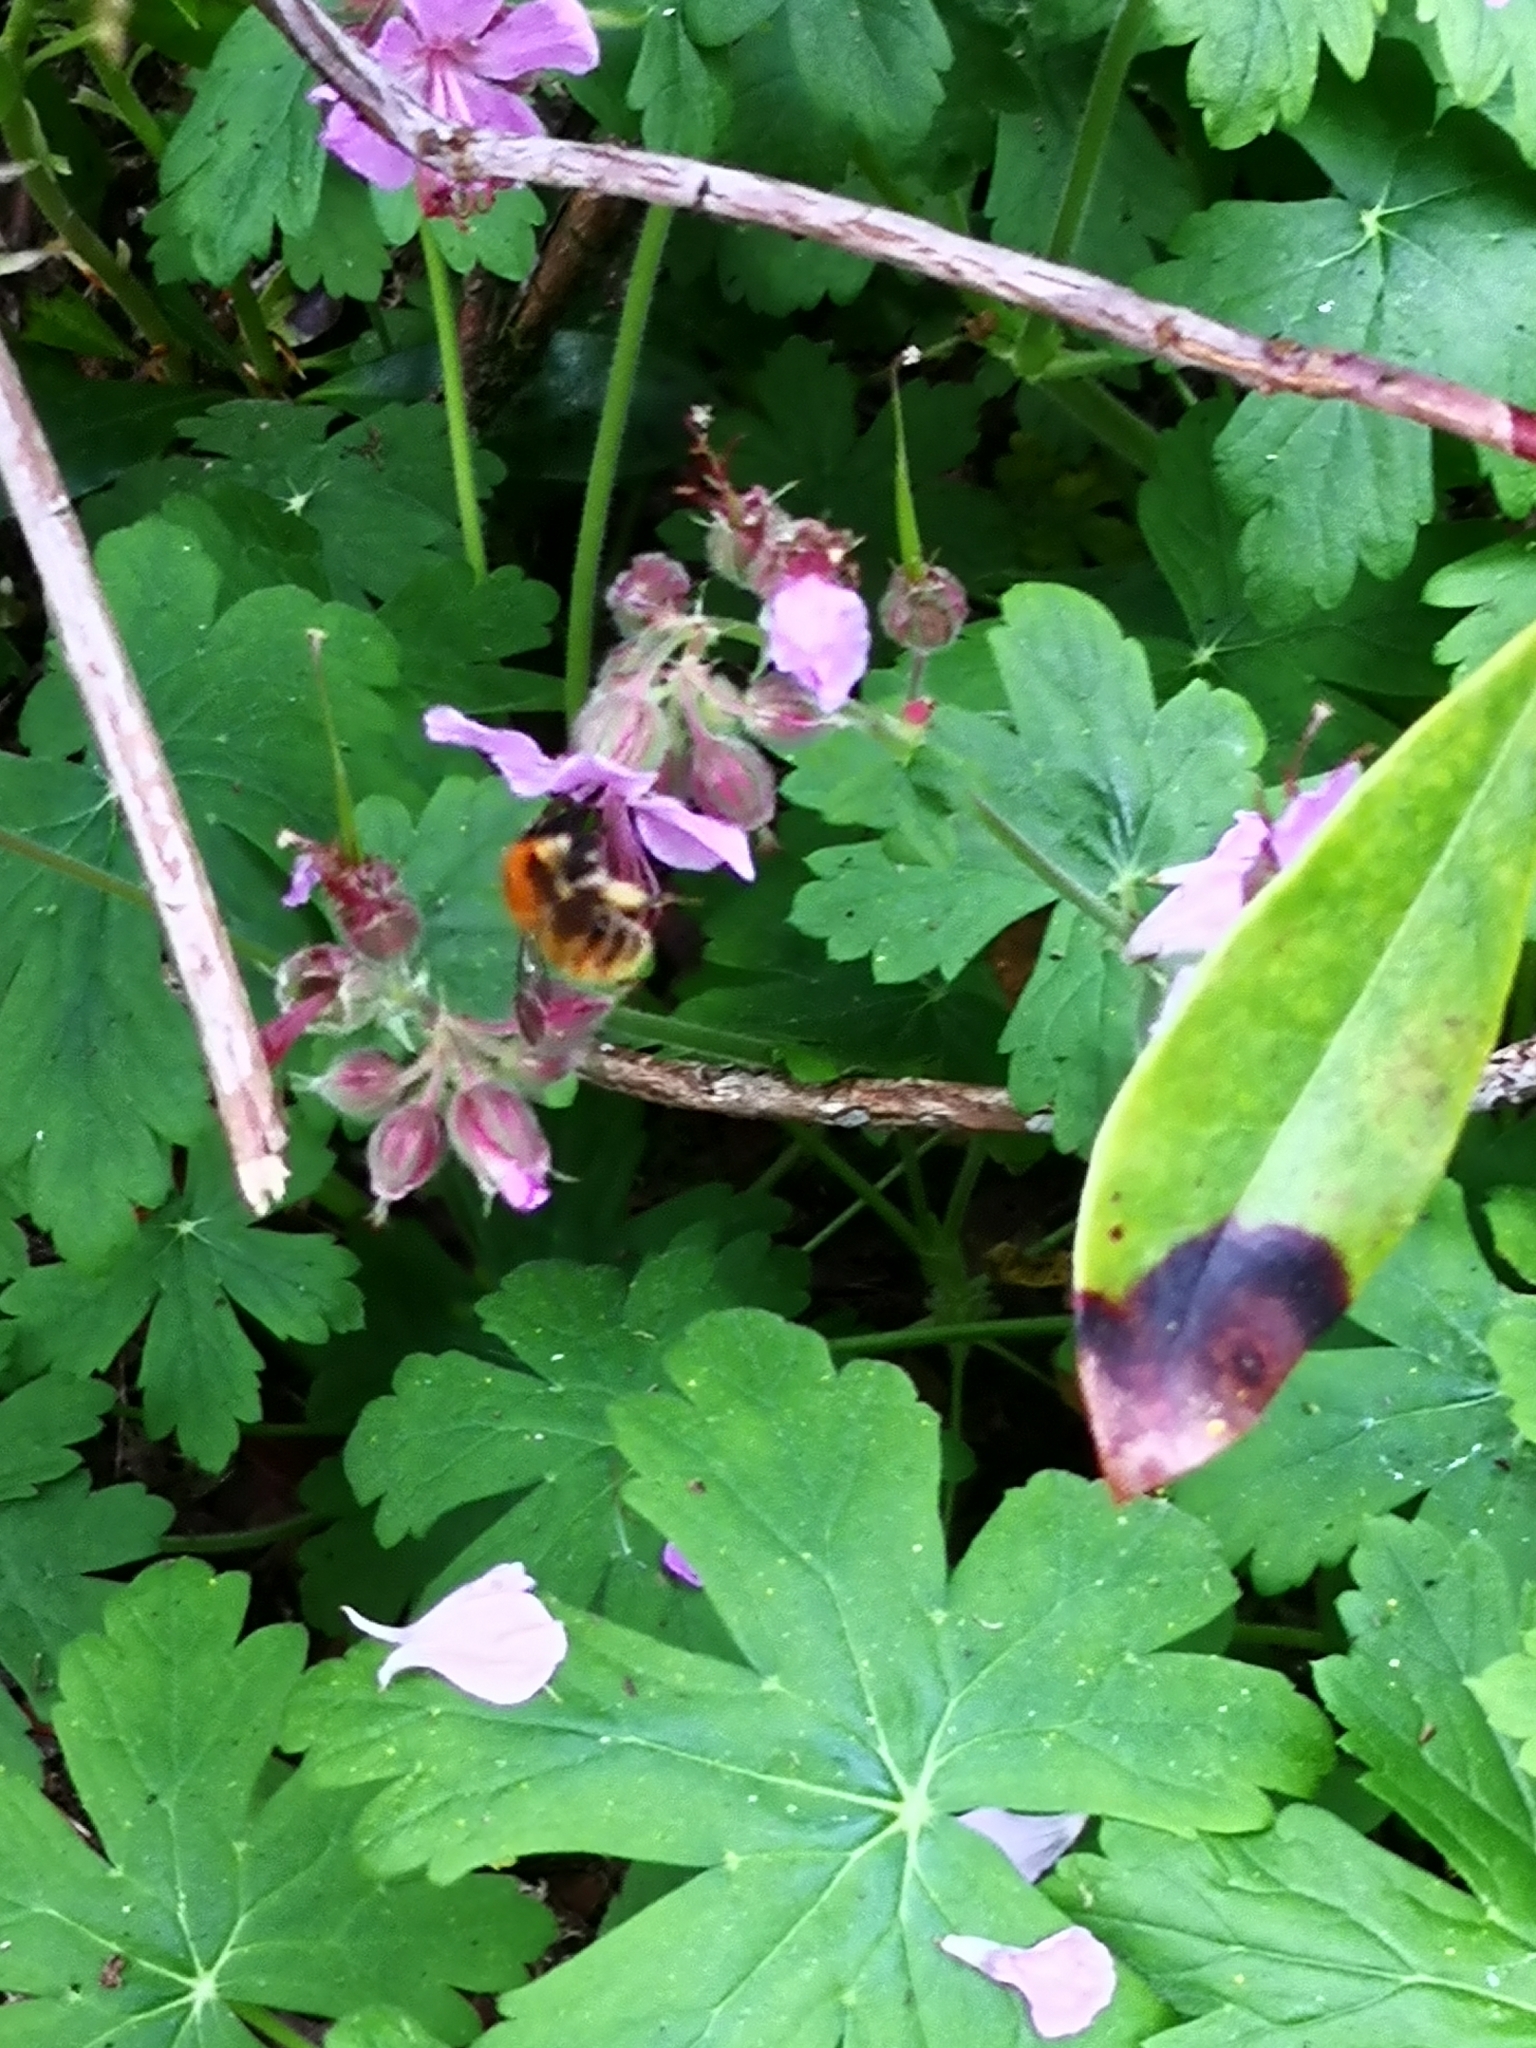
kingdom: Animalia
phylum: Arthropoda
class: Insecta
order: Hymenoptera
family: Apidae
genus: Bombus
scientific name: Bombus pascuorum
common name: Common carder bee
